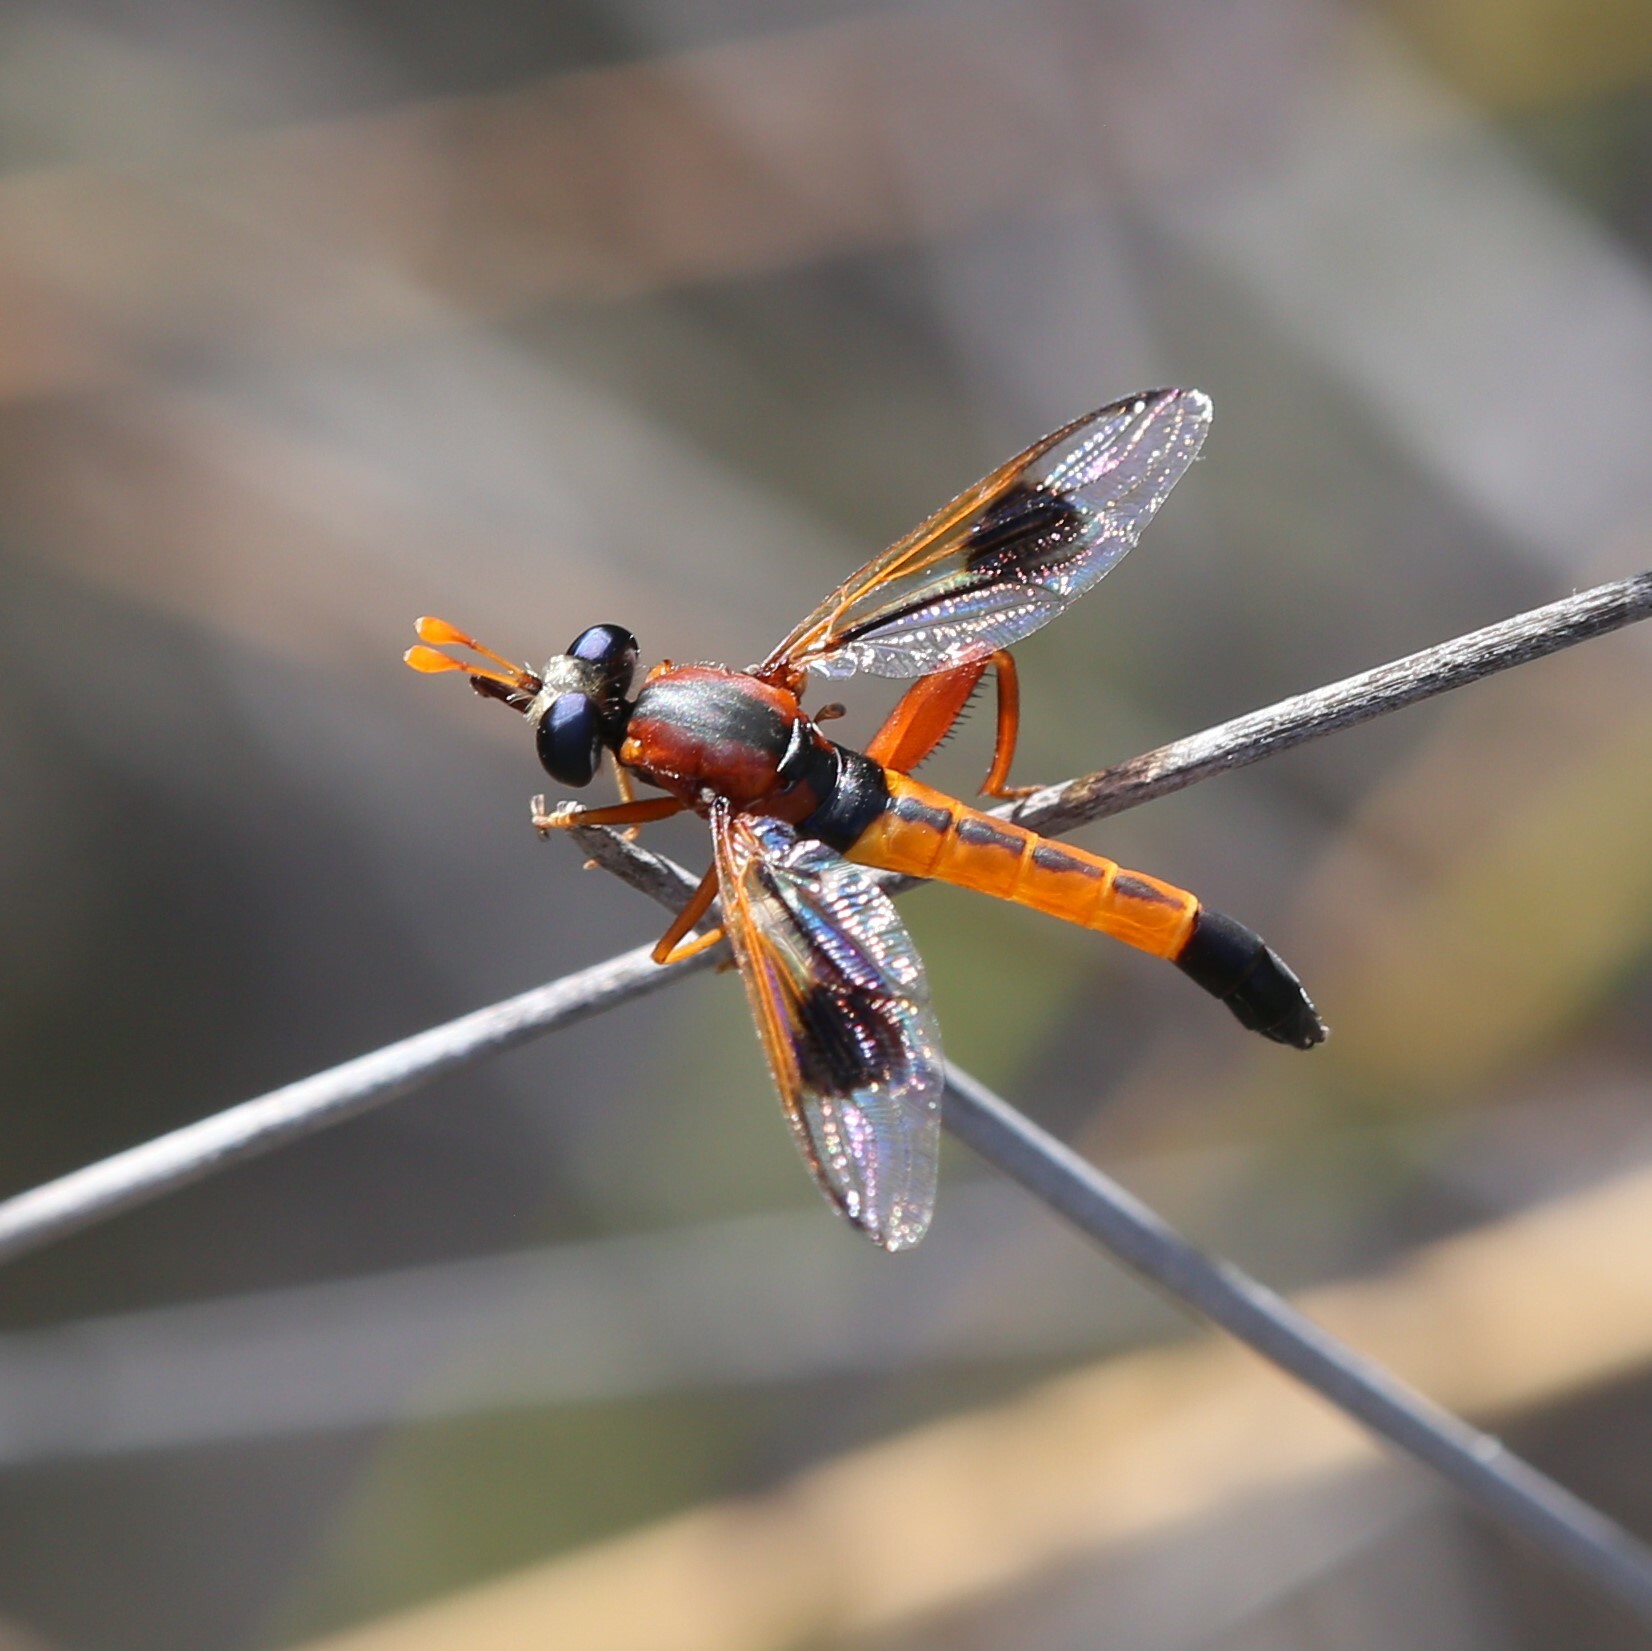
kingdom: Animalia
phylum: Arthropoda
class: Insecta
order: Diptera
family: Mydidae
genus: Miltinus
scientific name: Miltinus maculipennis
